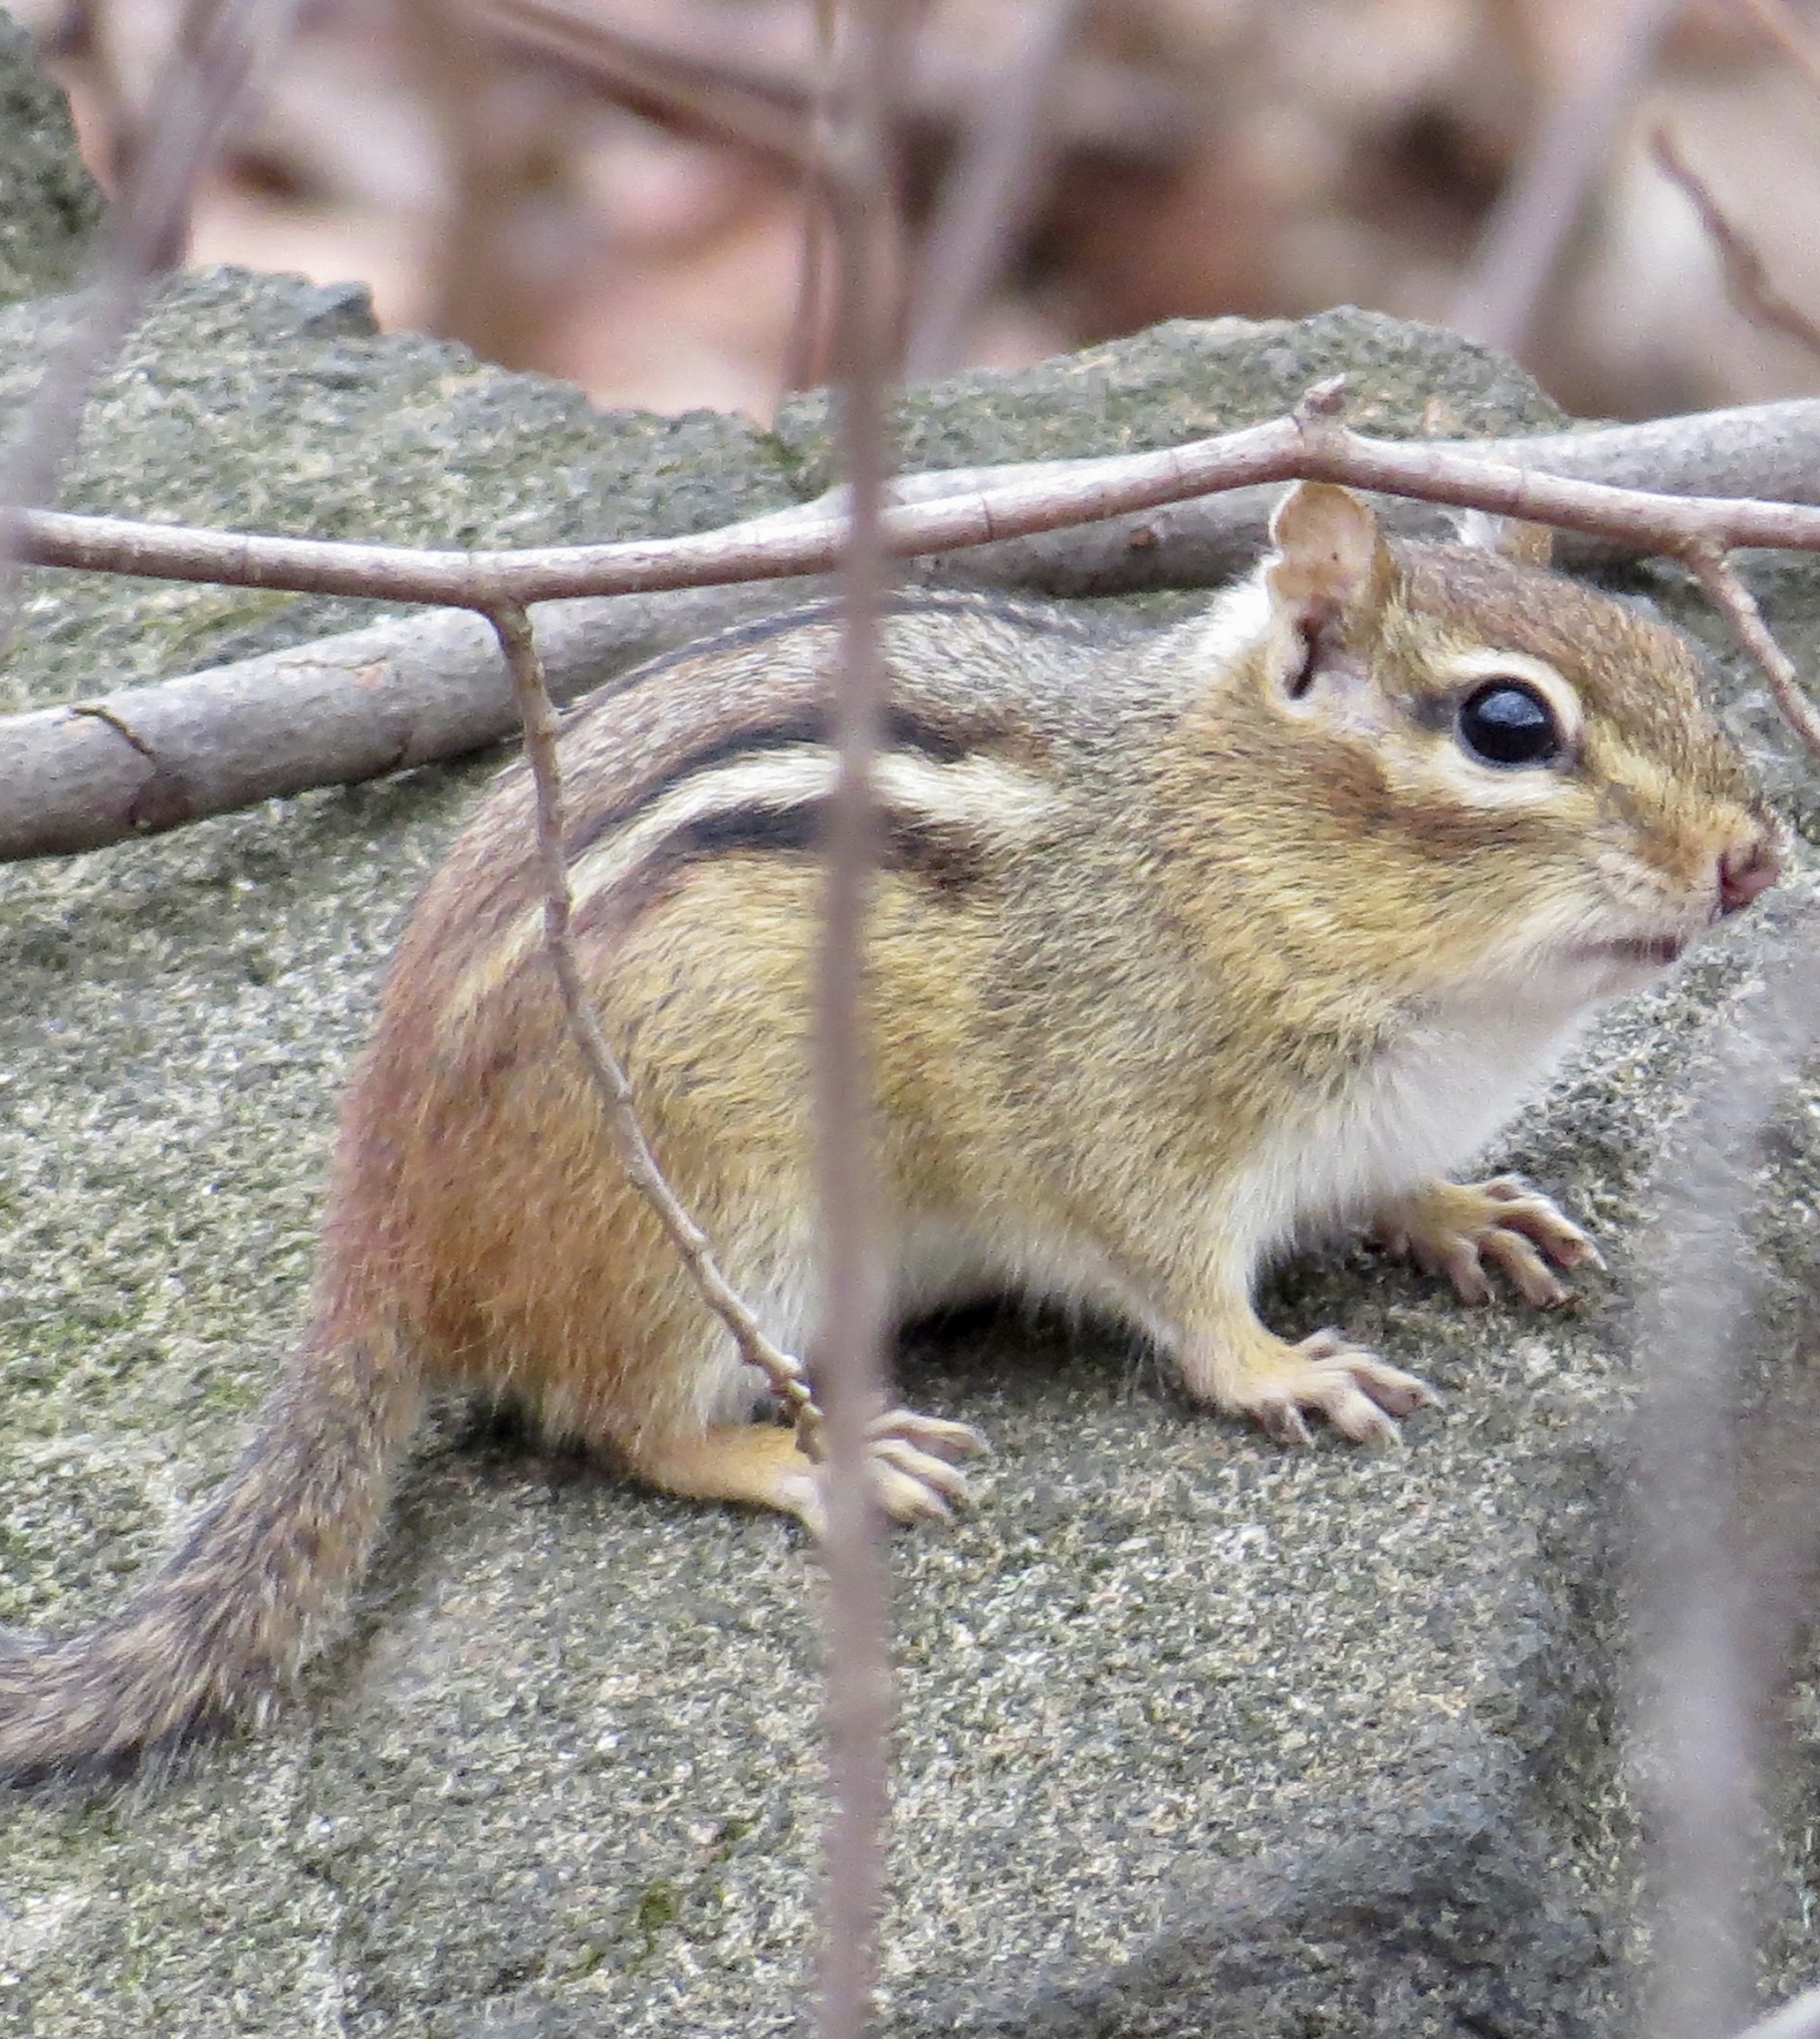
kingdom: Animalia
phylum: Chordata
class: Mammalia
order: Rodentia
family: Sciuridae
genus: Tamias
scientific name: Tamias striatus
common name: Eastern chipmunk
